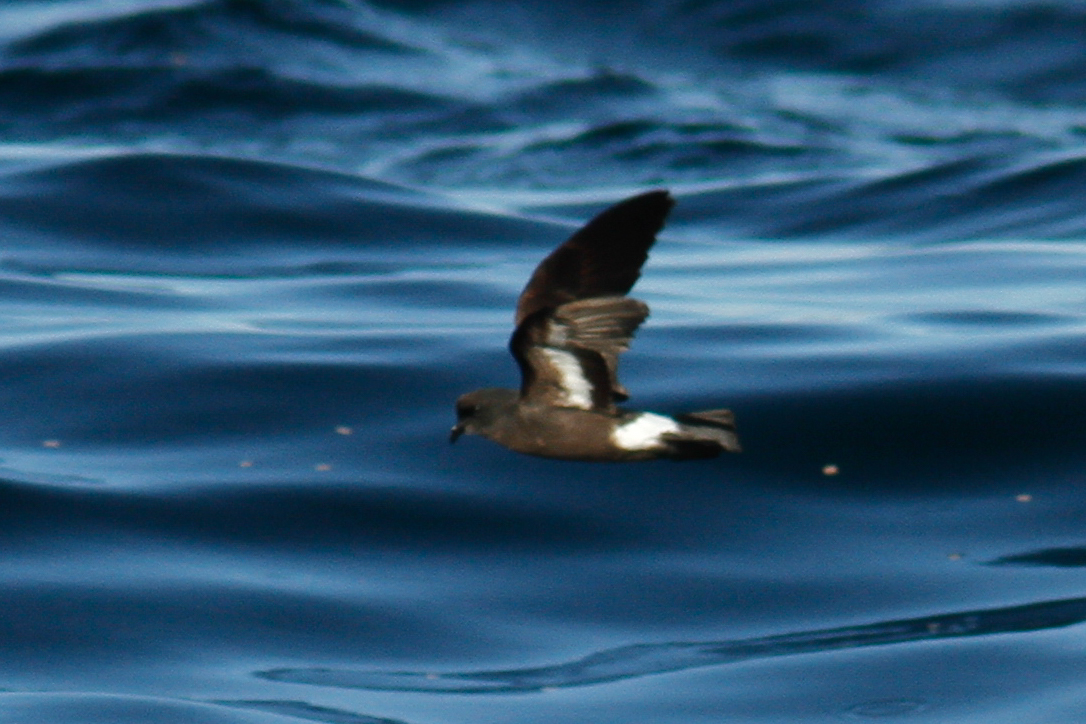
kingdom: Animalia
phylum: Chordata
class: Aves
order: Procellariiformes
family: Hydrobatidae
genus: Hydrobates
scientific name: Hydrobates pelagicus
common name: European storm-petrel
